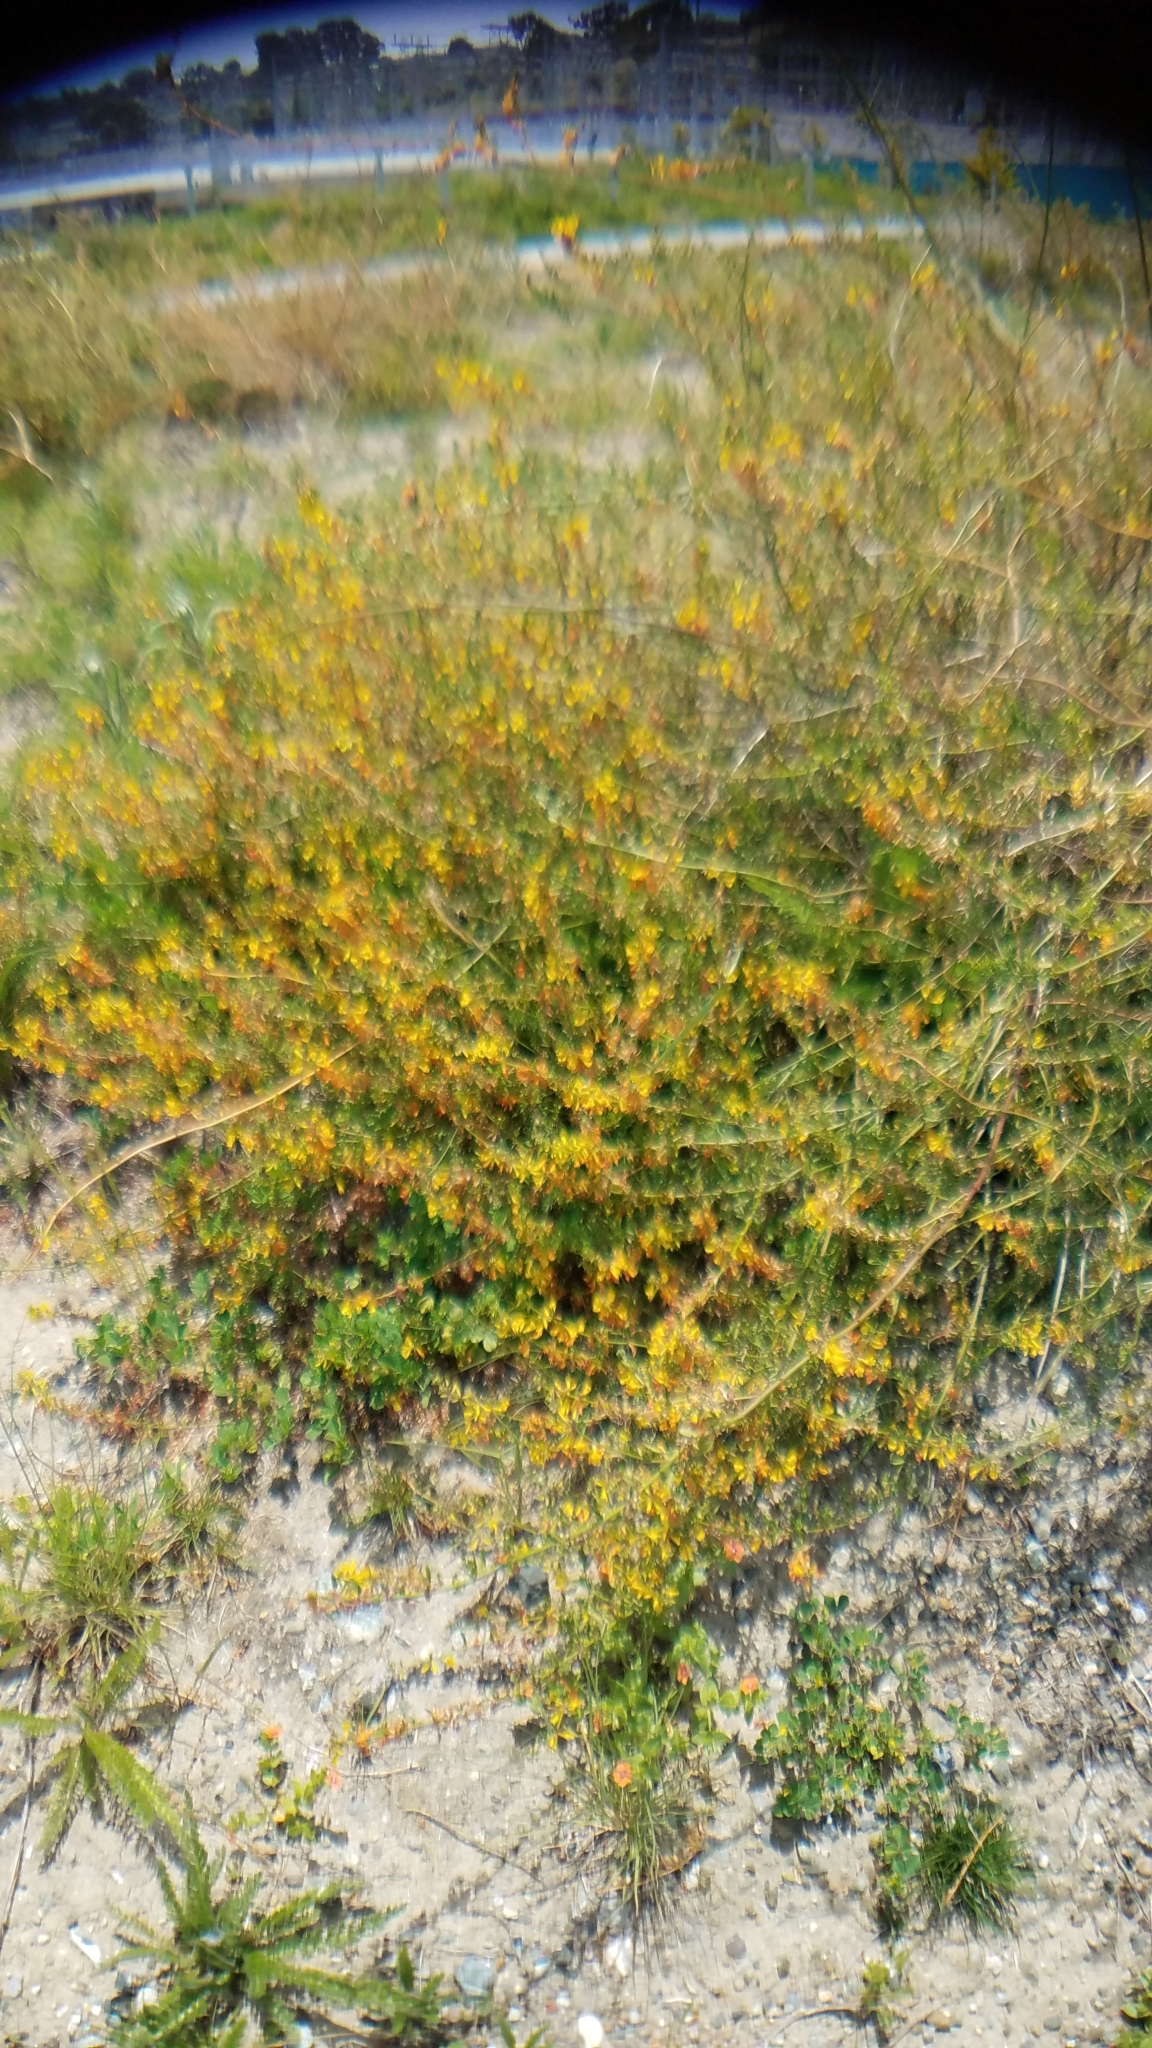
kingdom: Plantae
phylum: Tracheophyta
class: Magnoliopsida
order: Fabales
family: Fabaceae
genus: Acmispon
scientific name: Acmispon glaber
